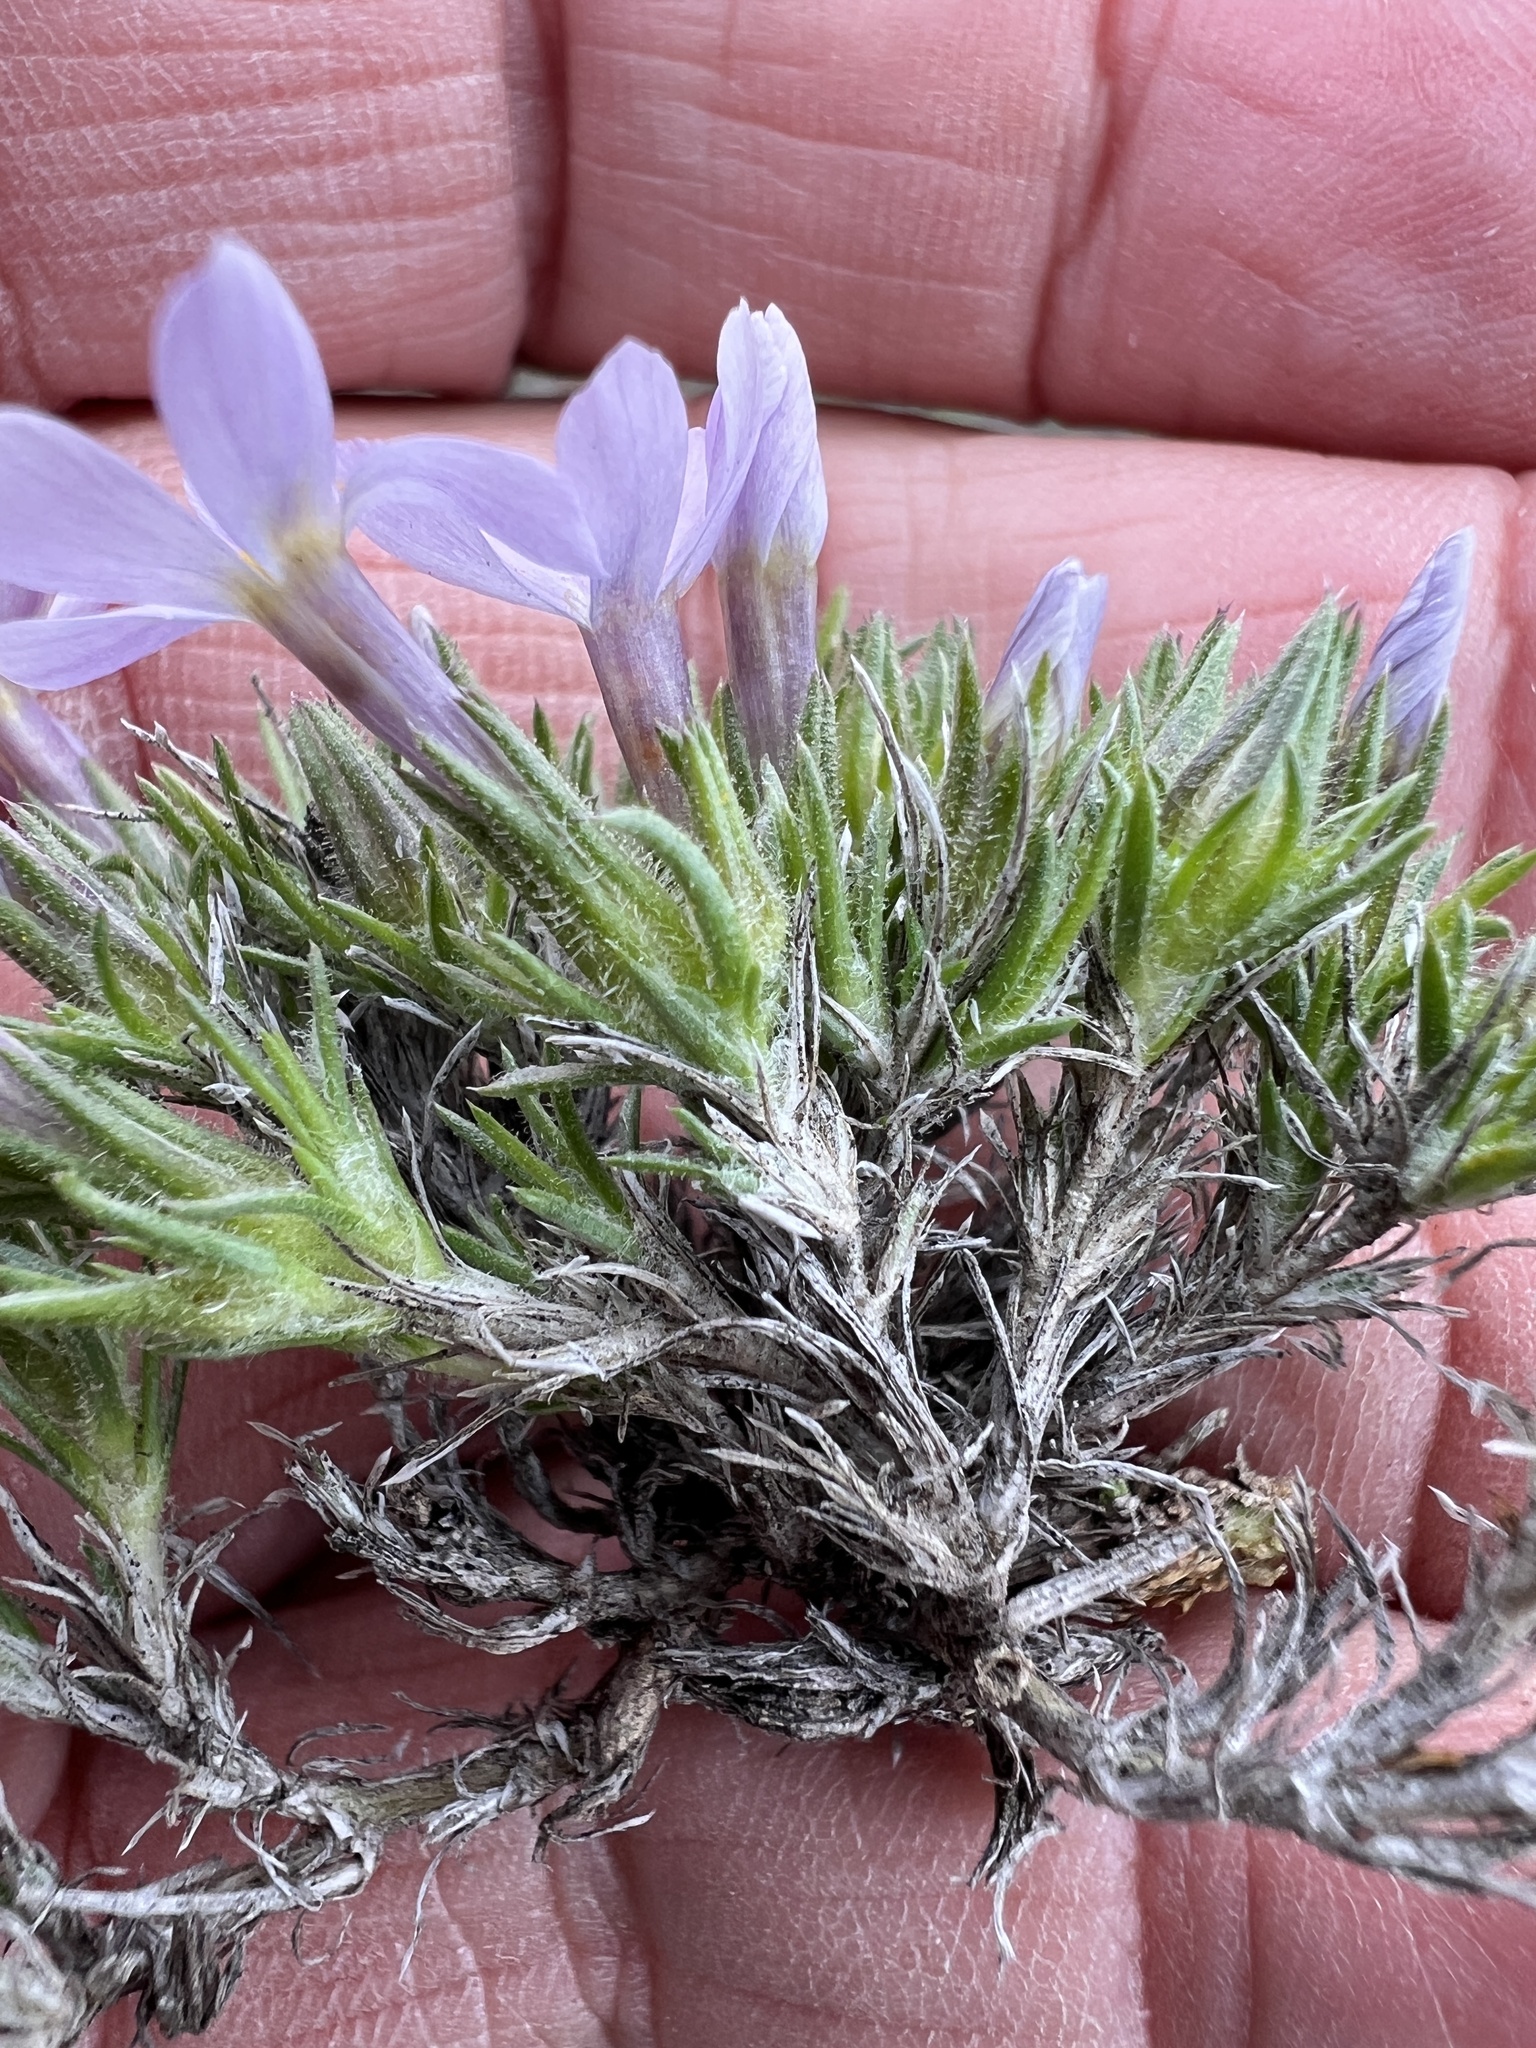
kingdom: Plantae
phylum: Tracheophyta
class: Magnoliopsida
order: Ericales
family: Polemoniaceae
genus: Phlox
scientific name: Phlox douglasii
